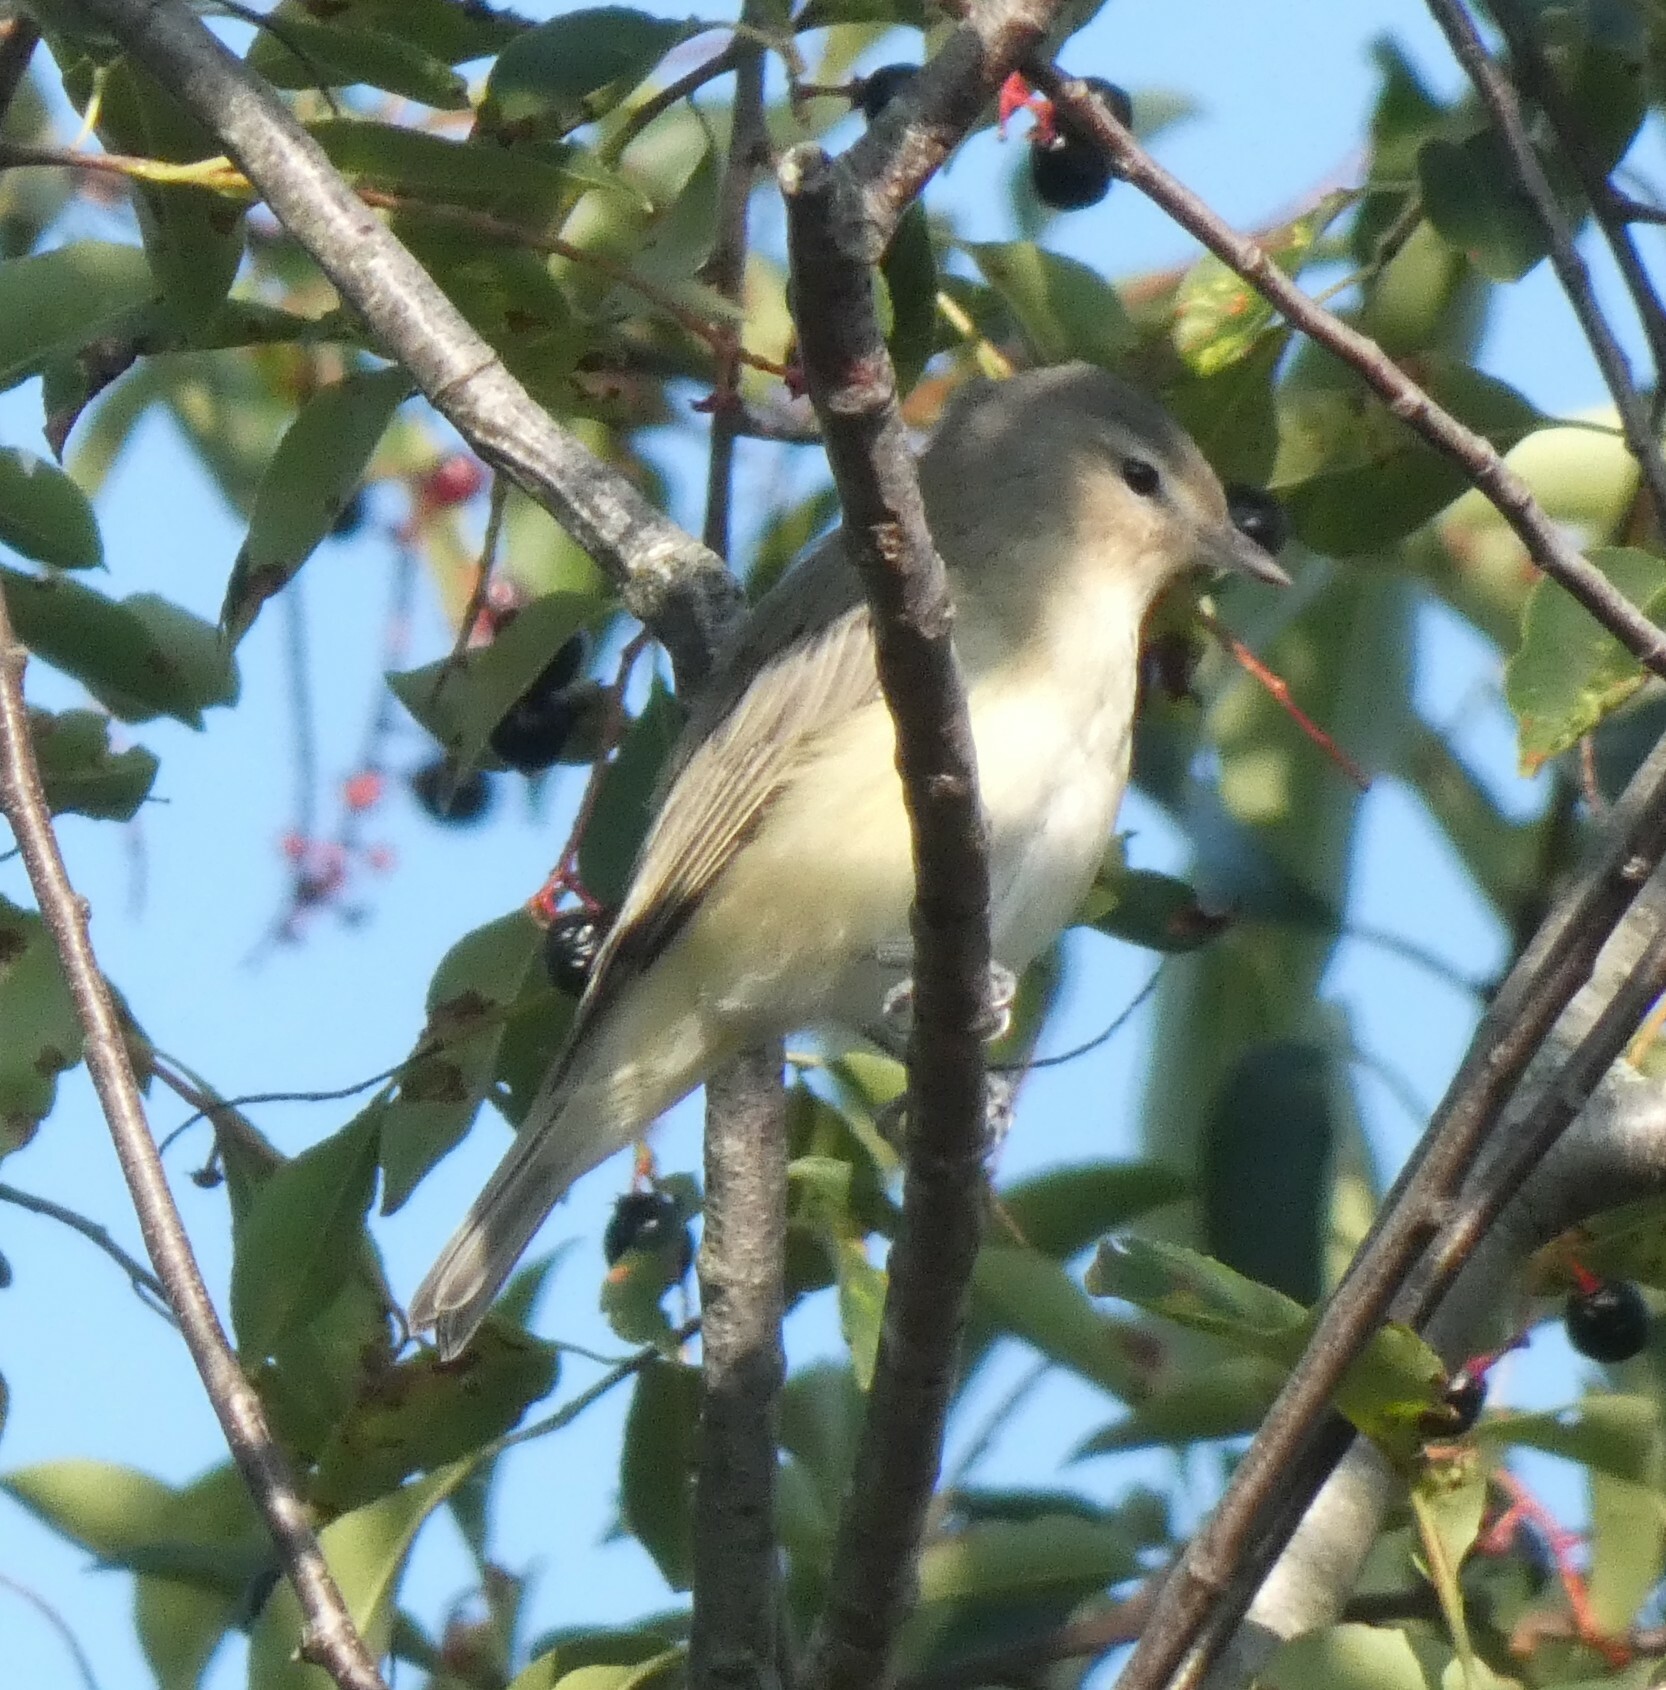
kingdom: Animalia
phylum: Chordata
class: Aves
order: Passeriformes
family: Vireonidae
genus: Vireo
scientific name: Vireo gilvus
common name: Warbling vireo
